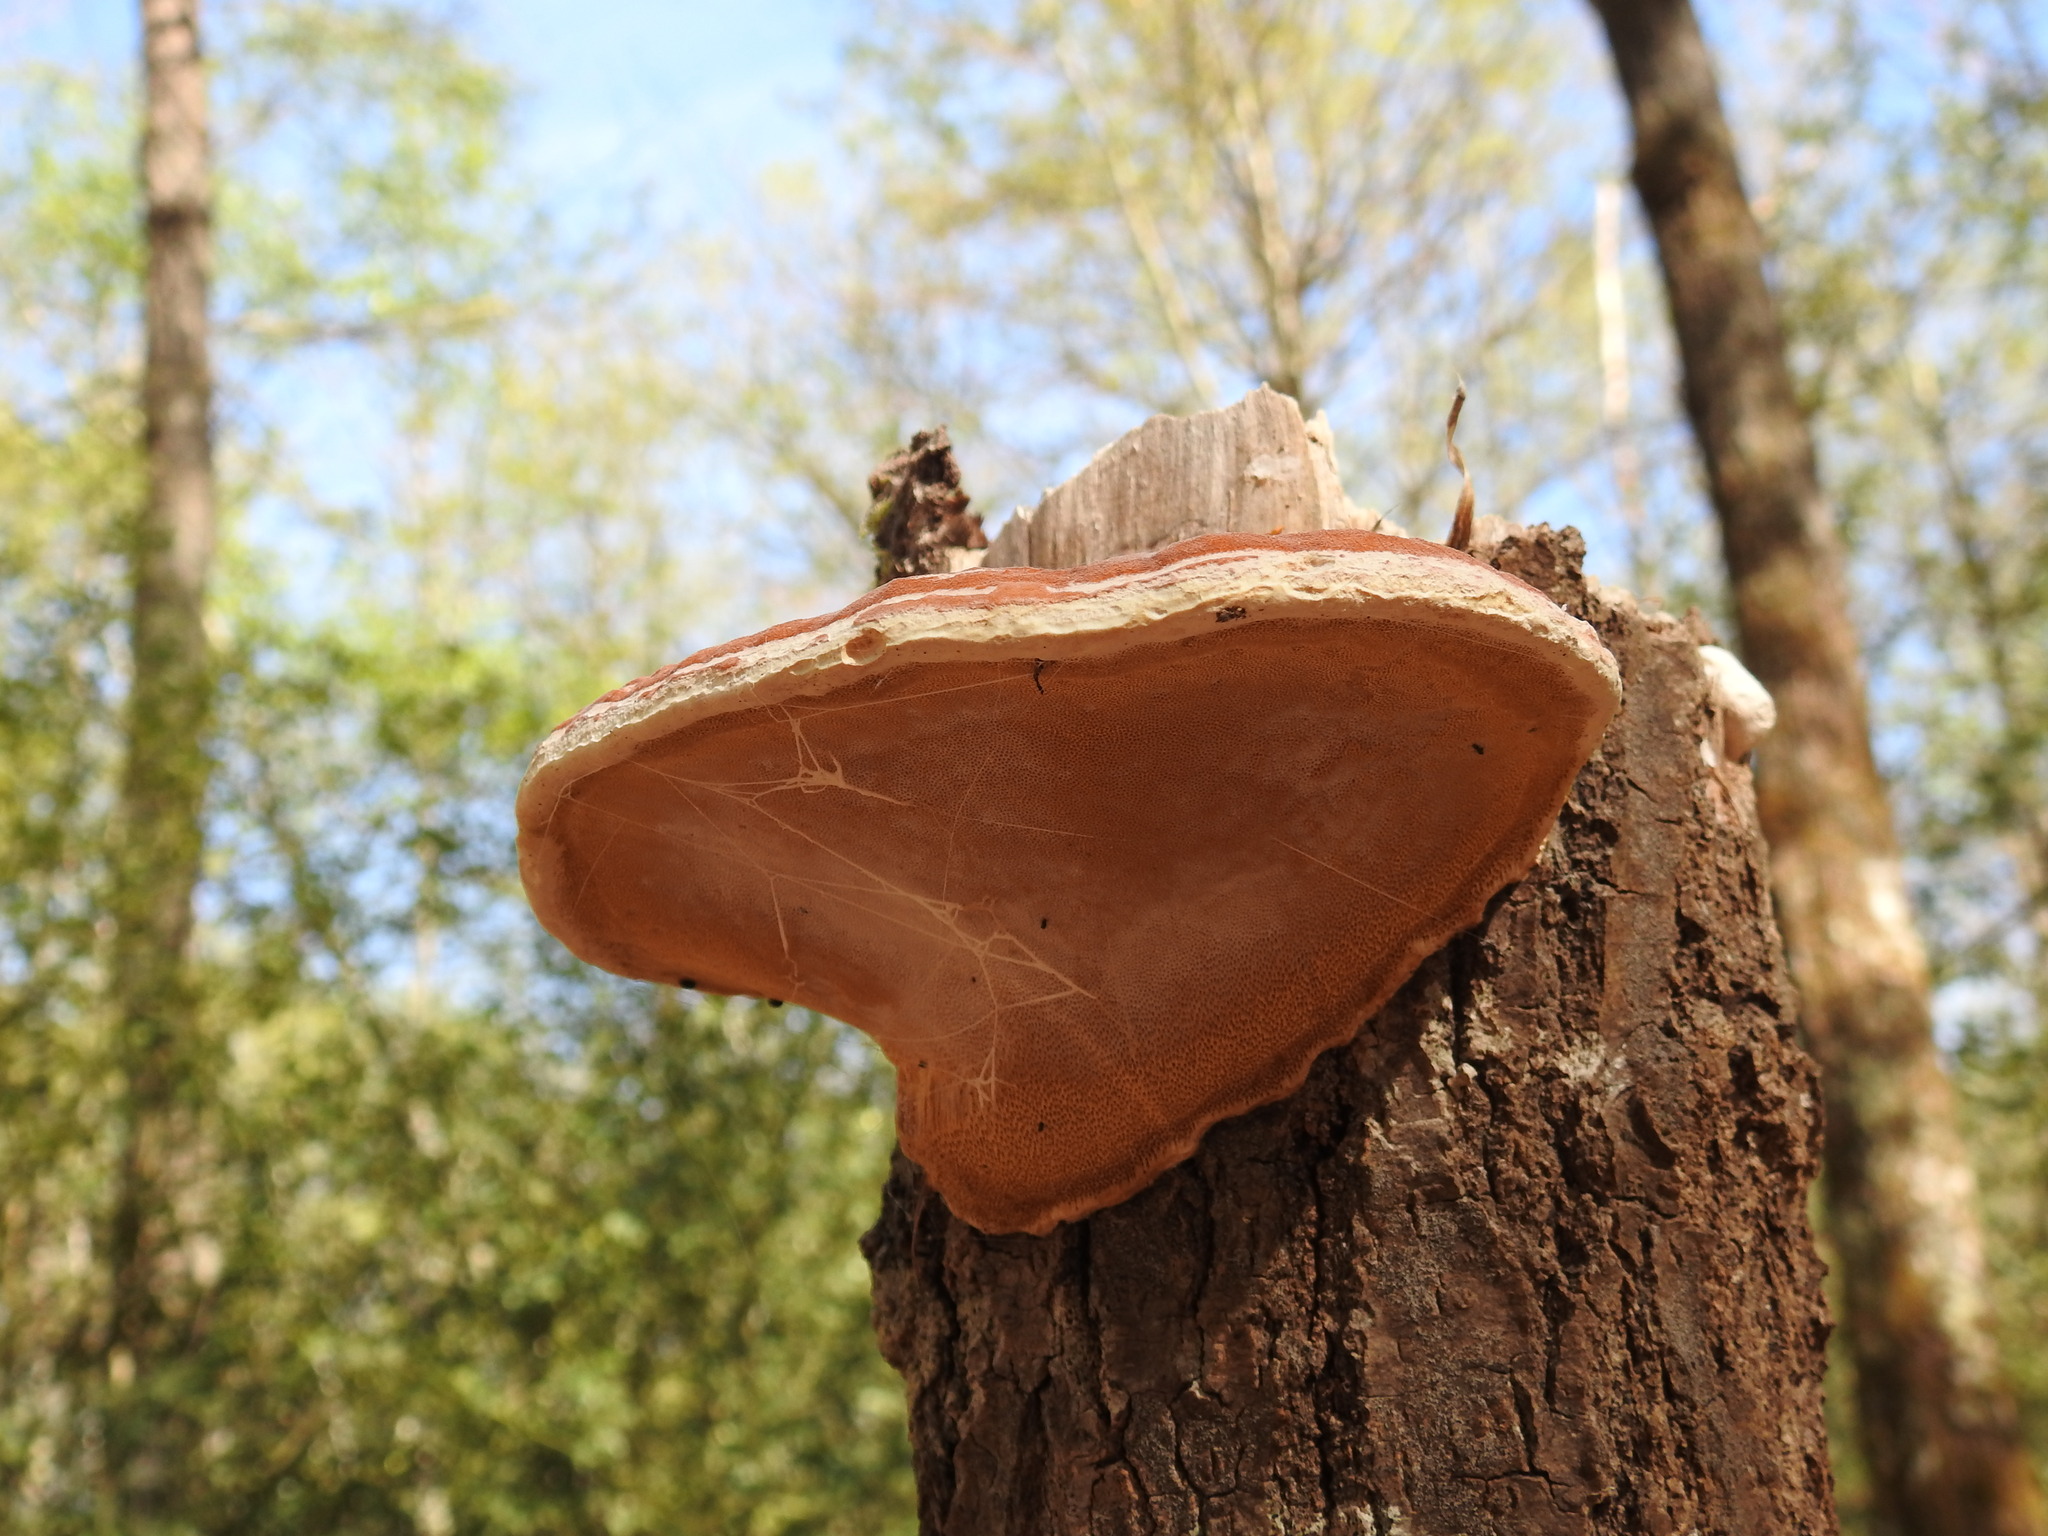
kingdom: Fungi
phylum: Basidiomycota
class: Agaricomycetes
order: Polyporales
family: Fomitopsidaceae
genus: Fomitopsis
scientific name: Fomitopsis pinicola
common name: Red-belted bracket
